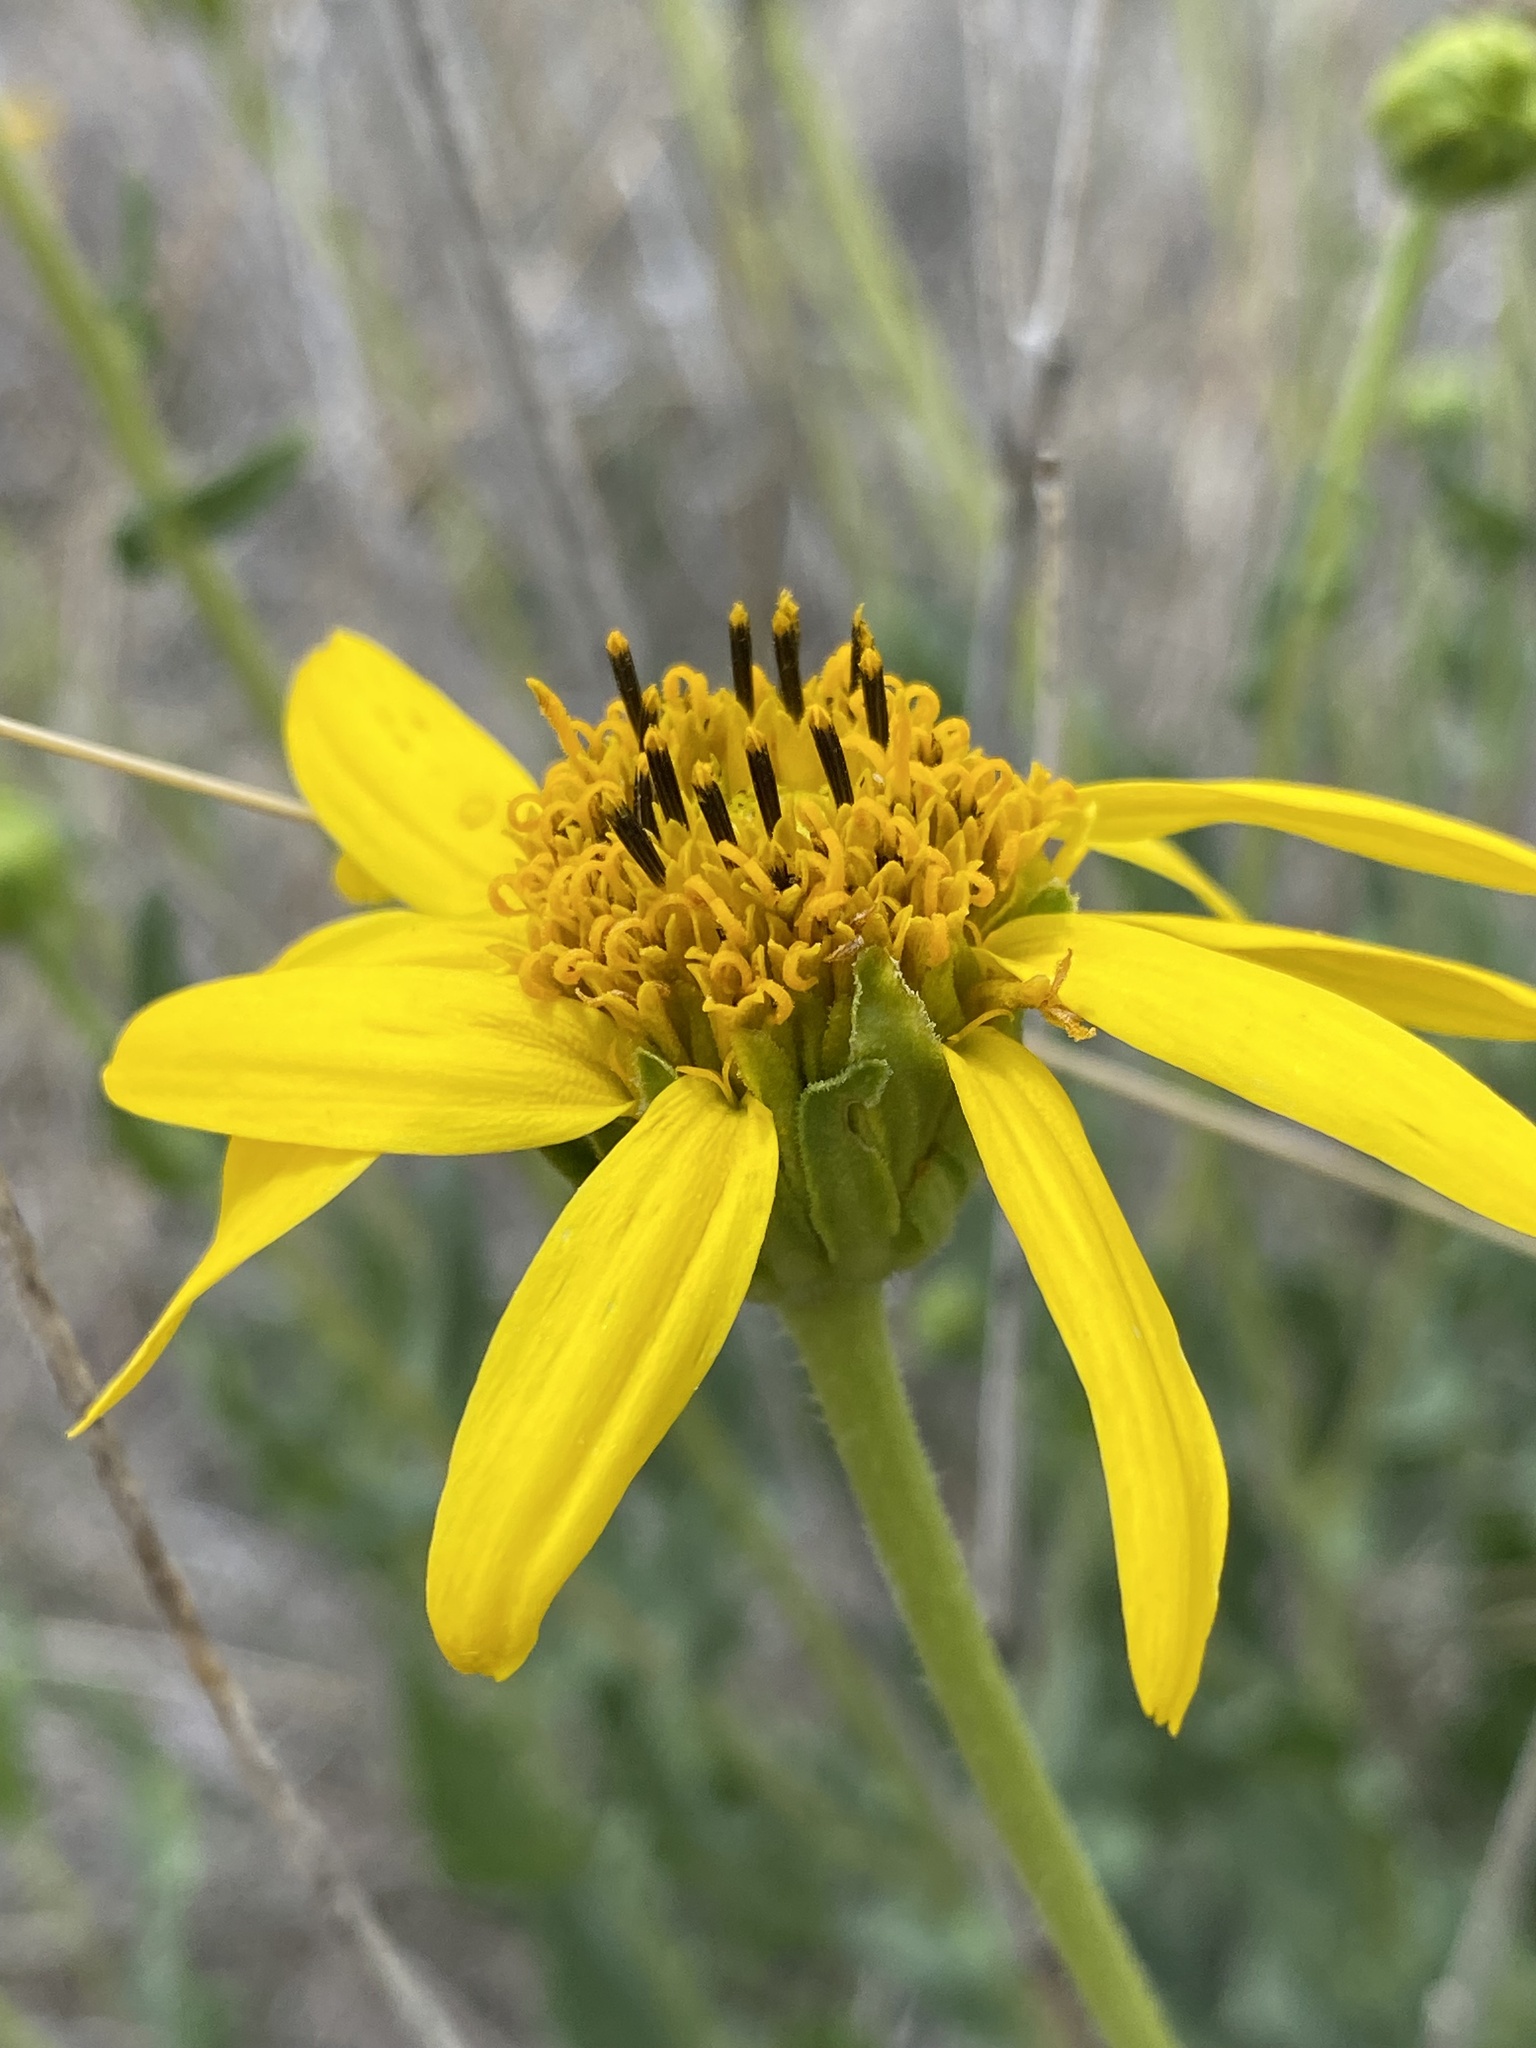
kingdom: Plantae
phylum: Tracheophyta
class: Magnoliopsida
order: Asterales
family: Asteraceae
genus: Verbesina
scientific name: Verbesina rothrockii
